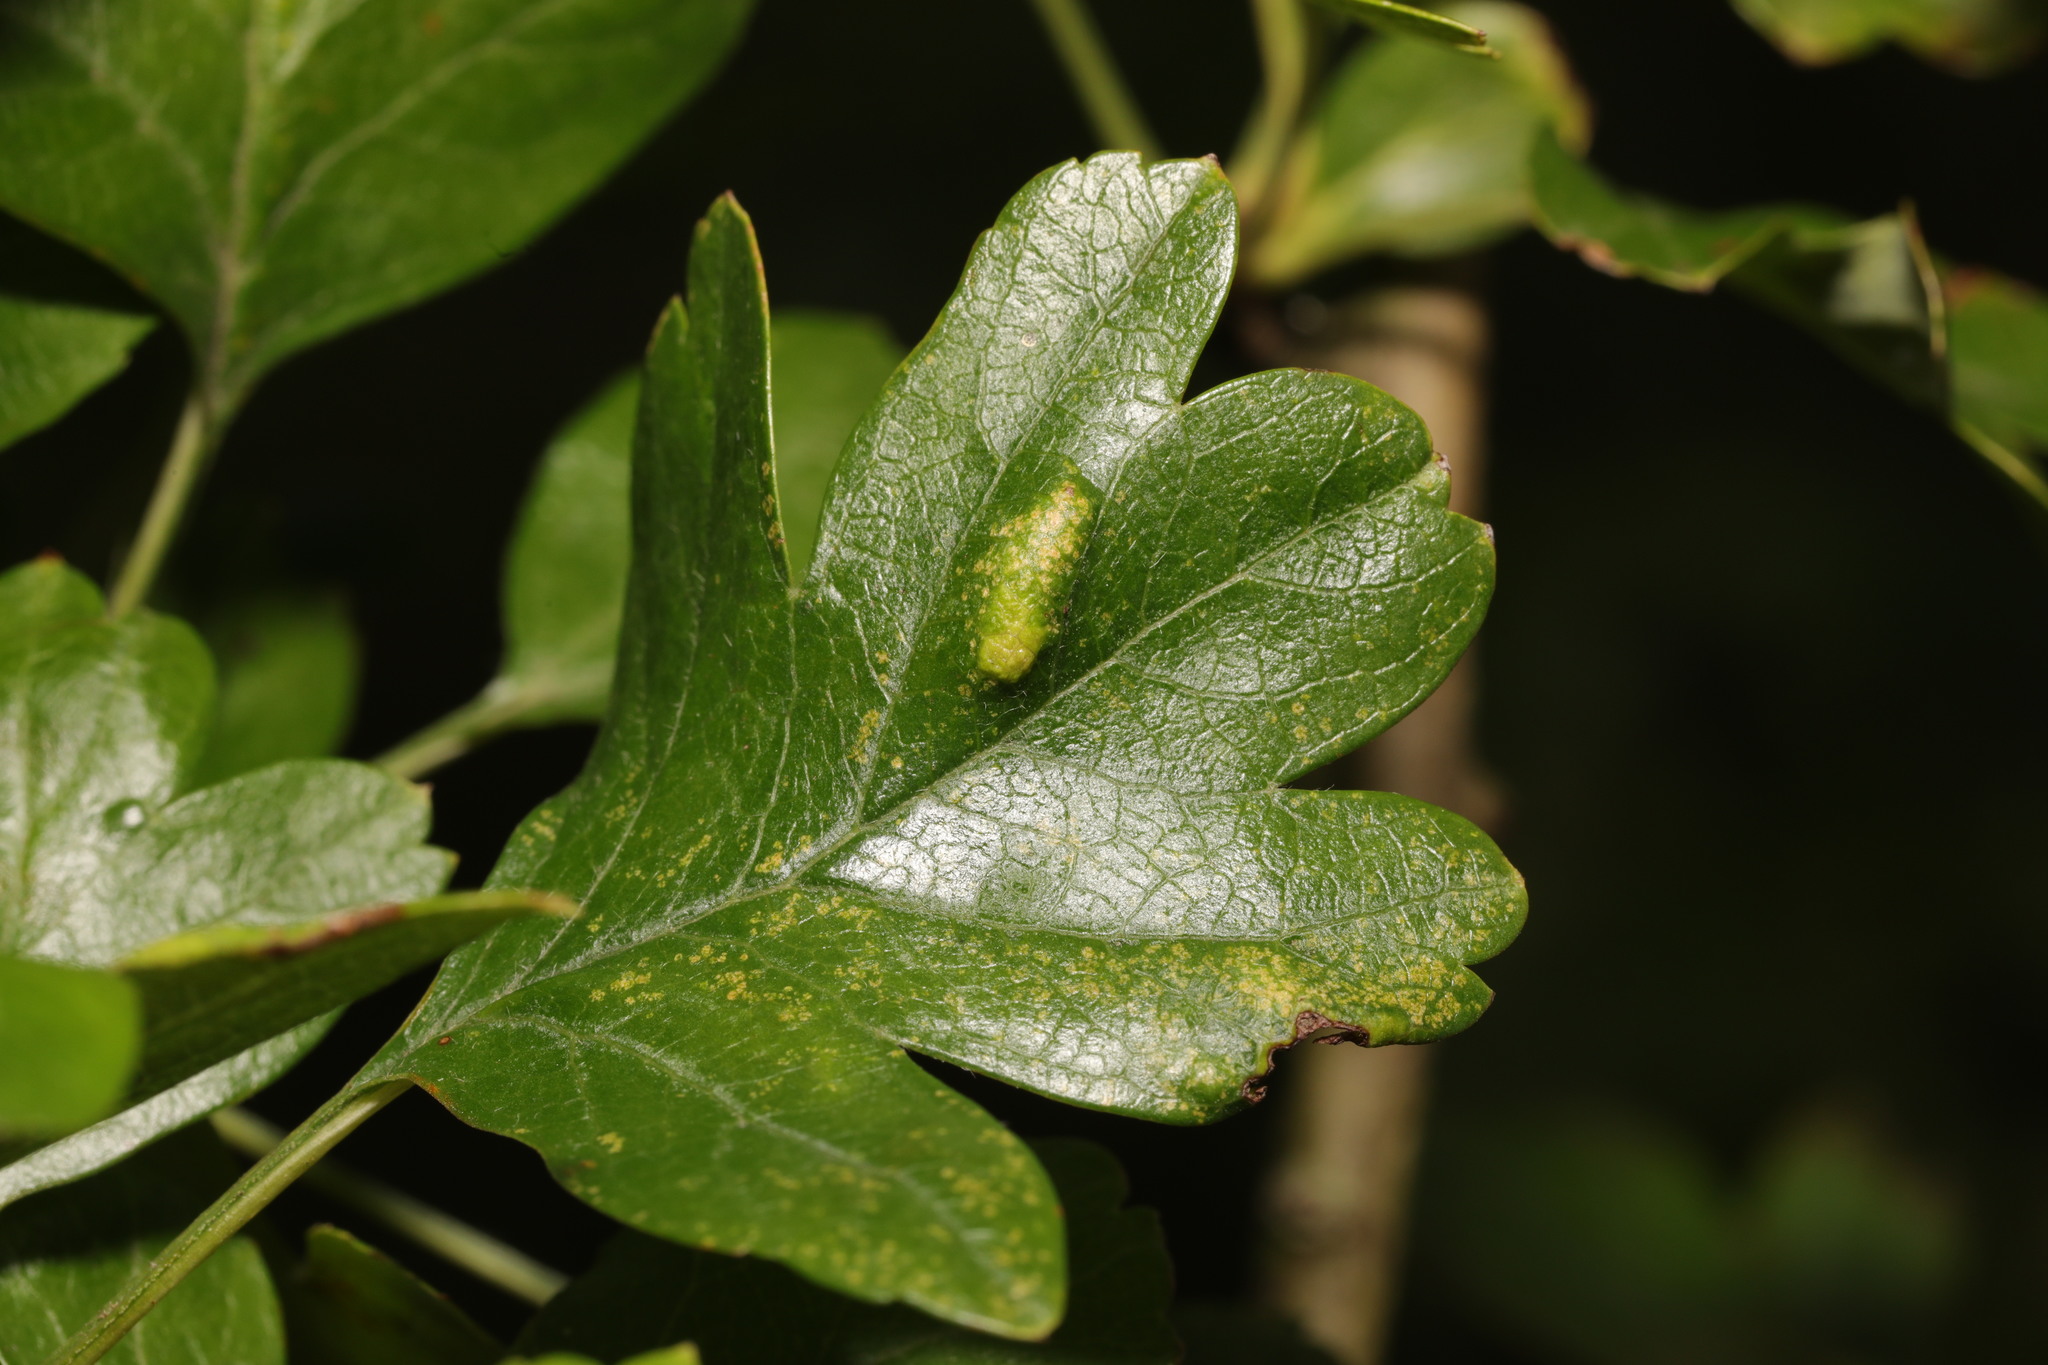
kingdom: Animalia
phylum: Arthropoda
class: Arachnida
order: Trombidiformes
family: Eriophyidae
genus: Phyllocoptes
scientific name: Phyllocoptes goniothorax
